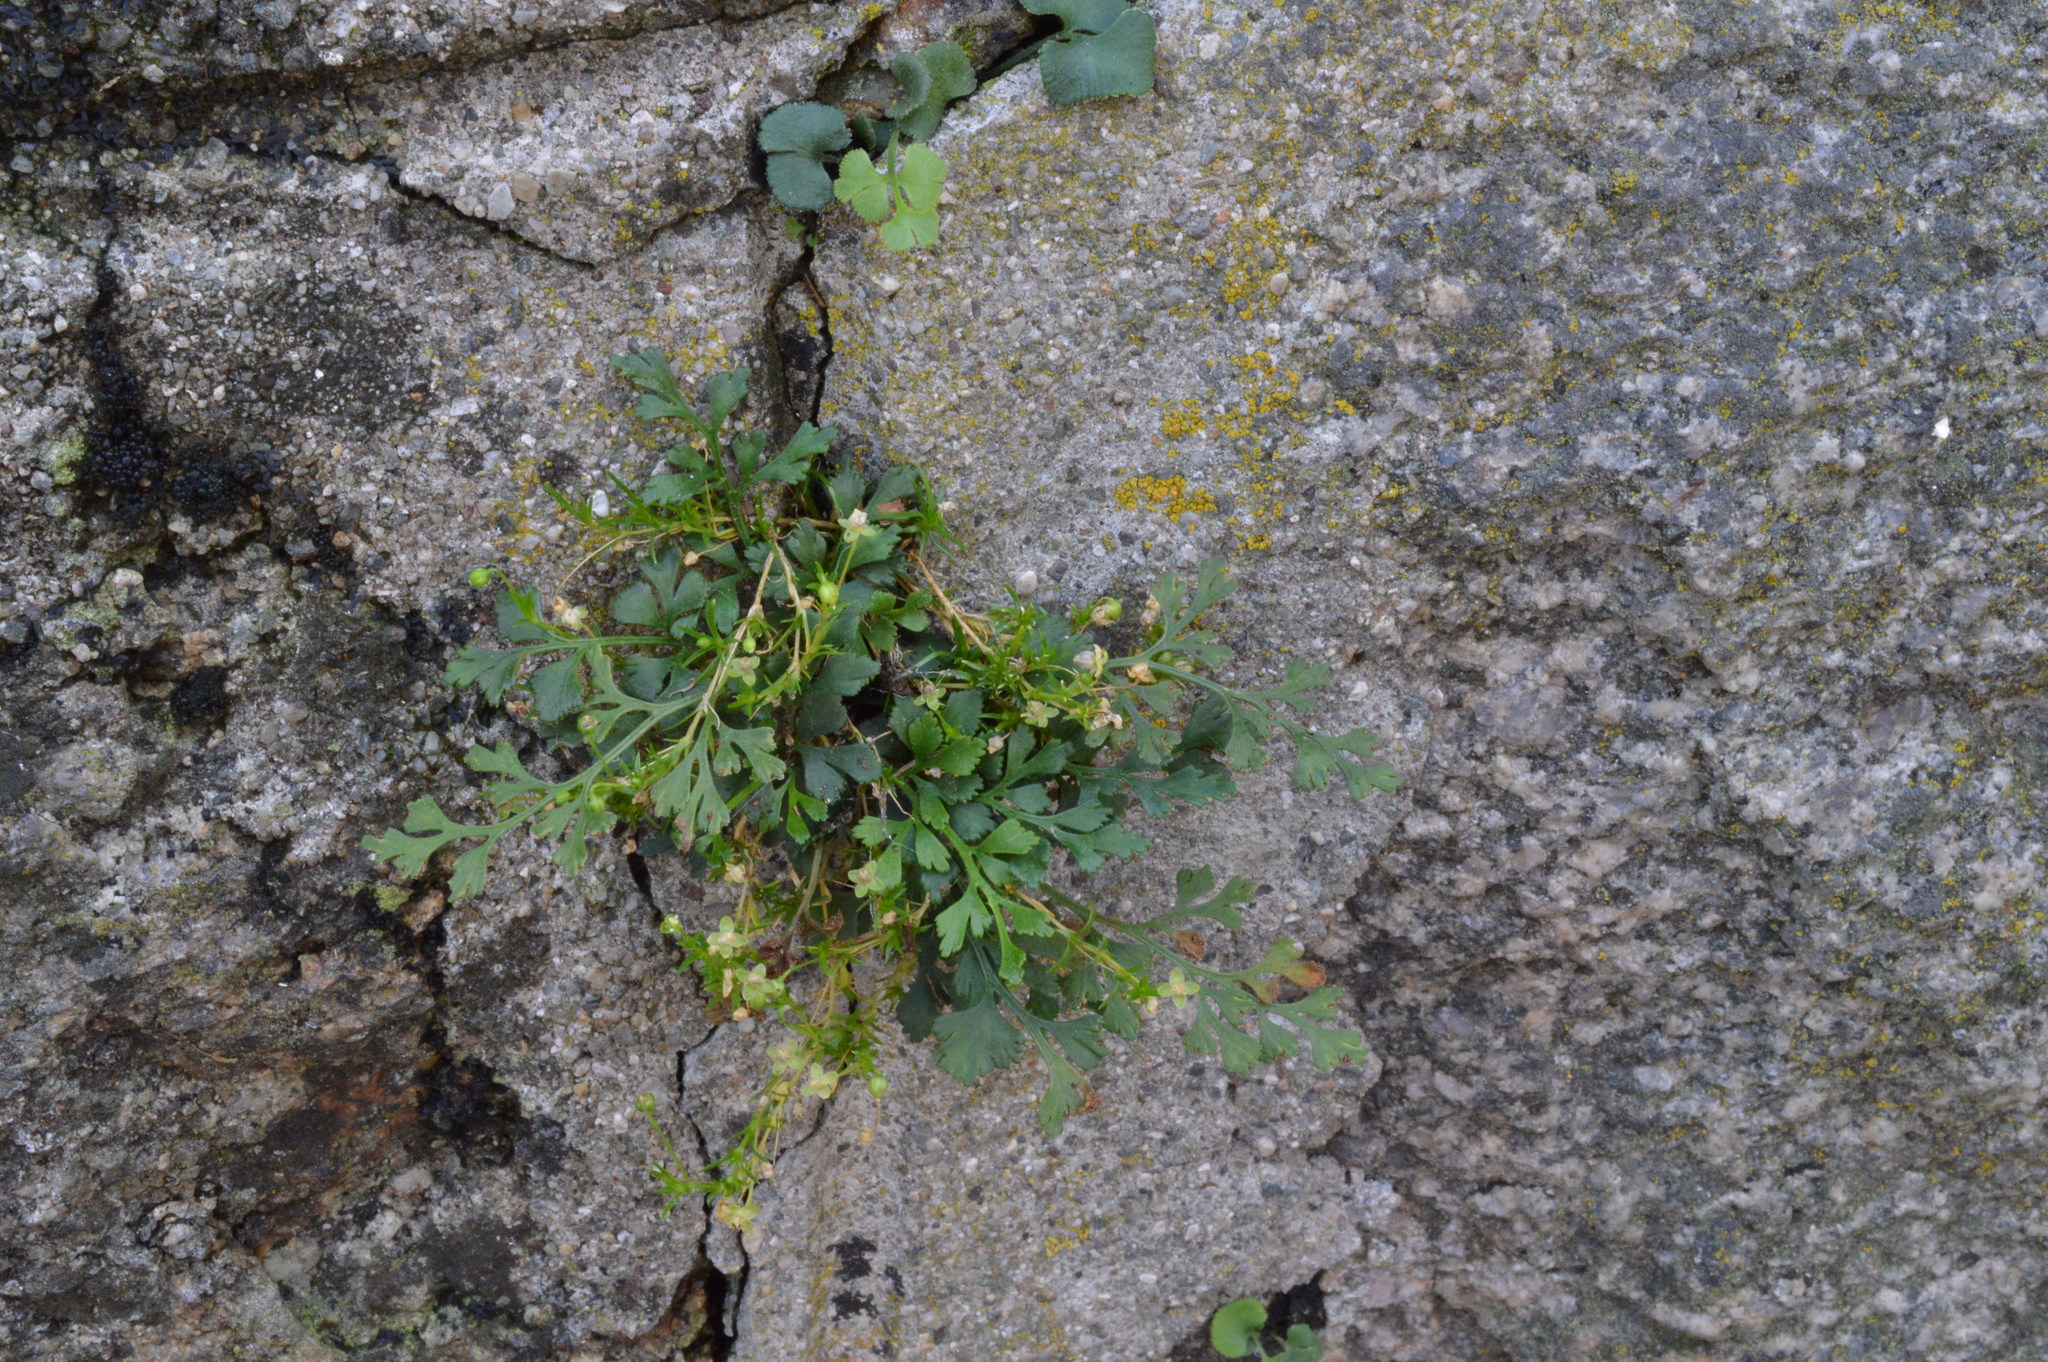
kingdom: Plantae
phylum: Tracheophyta
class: Magnoliopsida
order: Caryophyllales
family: Caryophyllaceae
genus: Sagina
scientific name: Sagina procumbens
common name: Procumbent pearlwort
